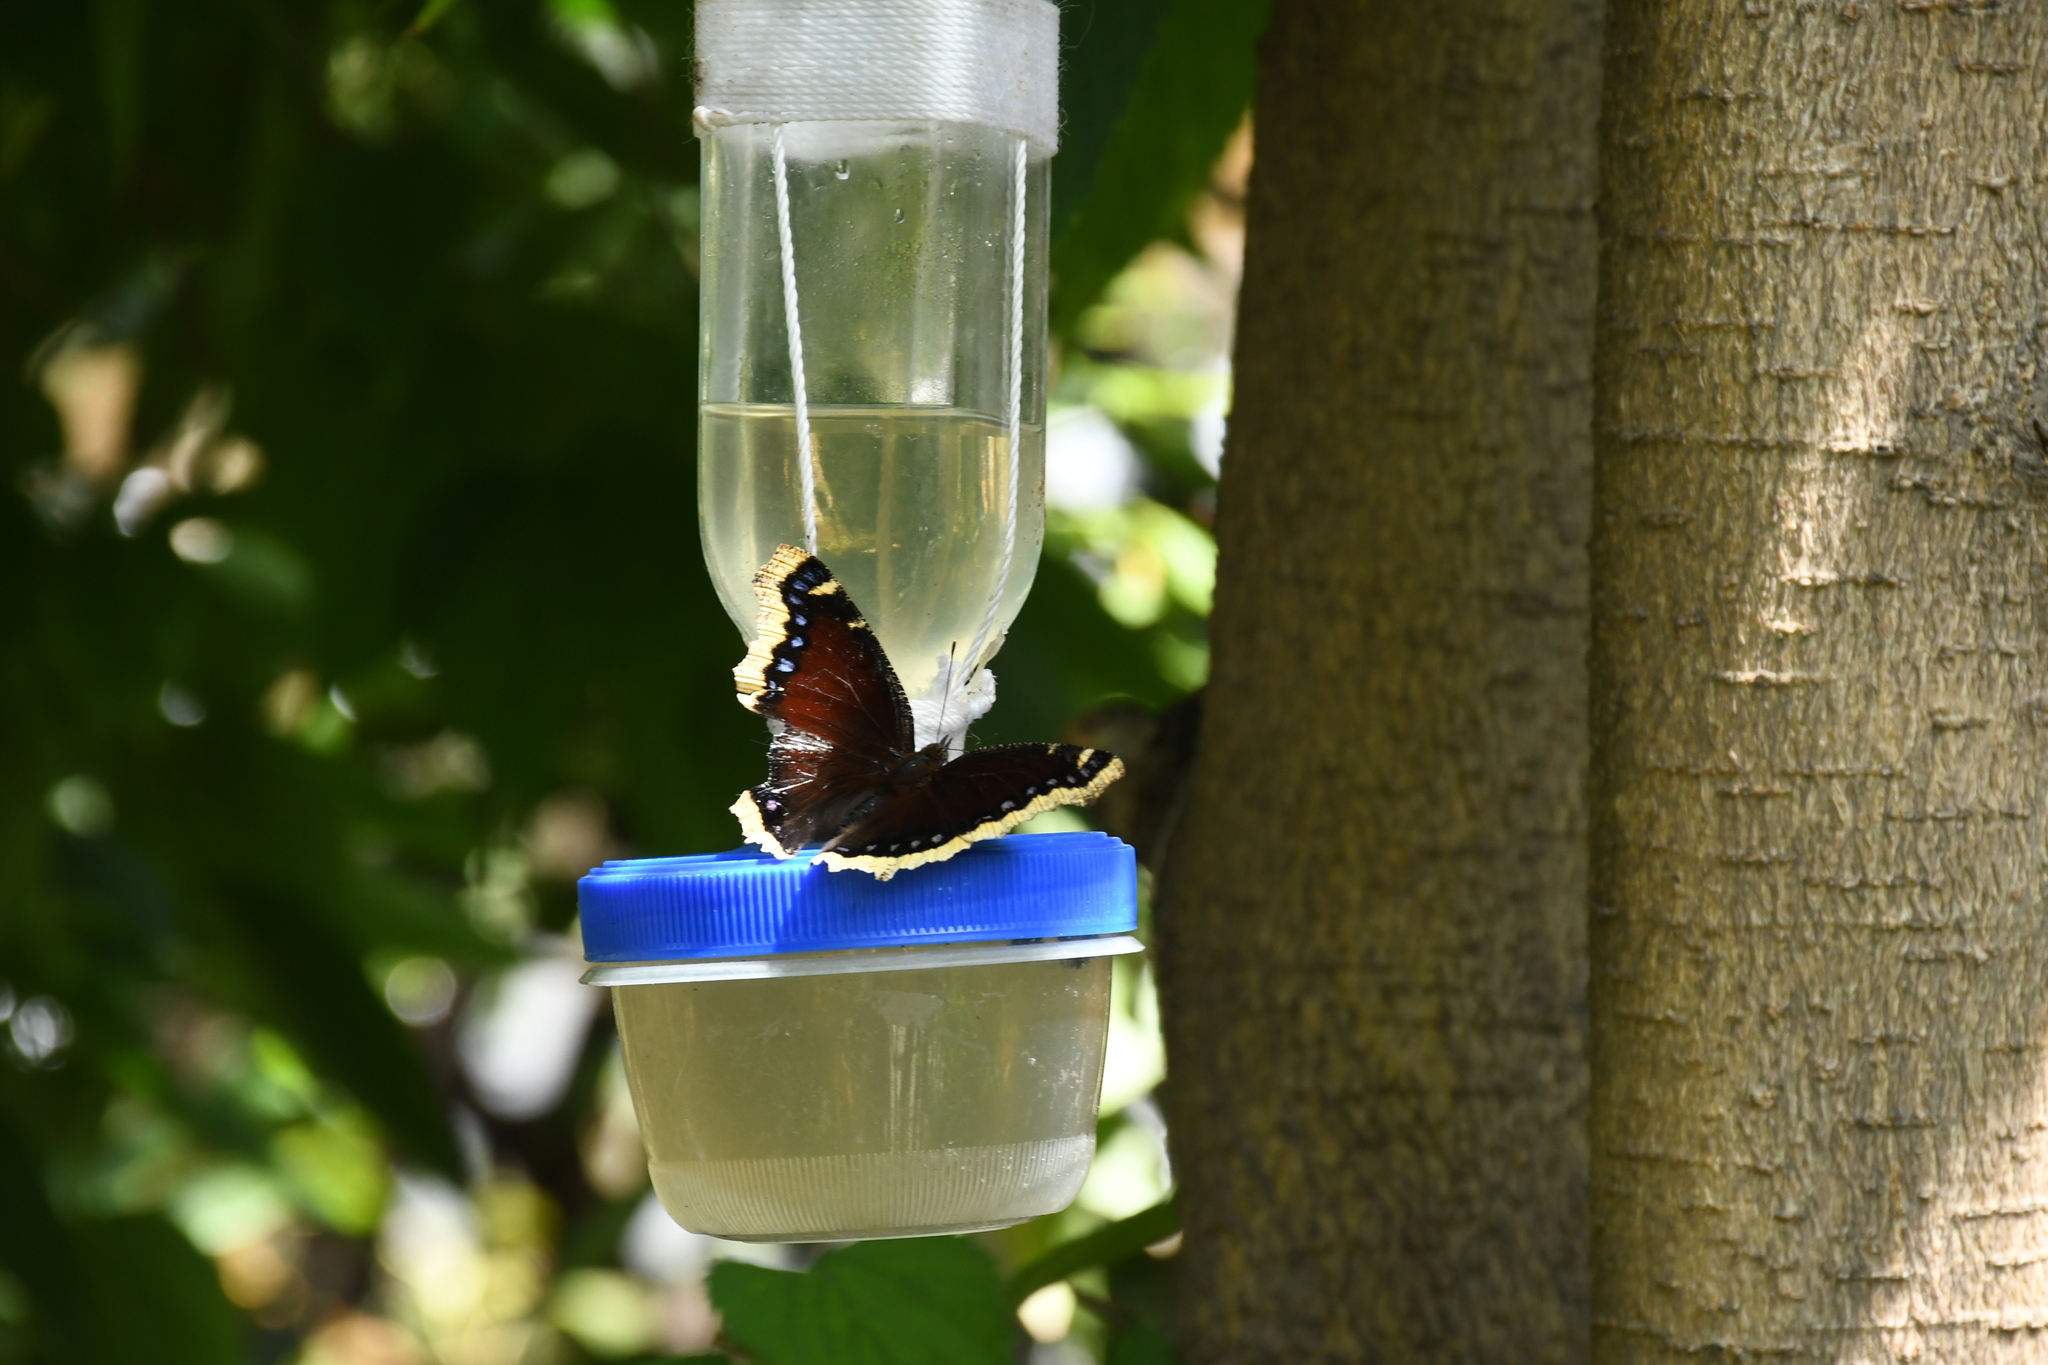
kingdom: Animalia
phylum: Arthropoda
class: Insecta
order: Lepidoptera
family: Nymphalidae
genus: Nymphalis
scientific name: Nymphalis antiopa
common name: Camberwell beauty
